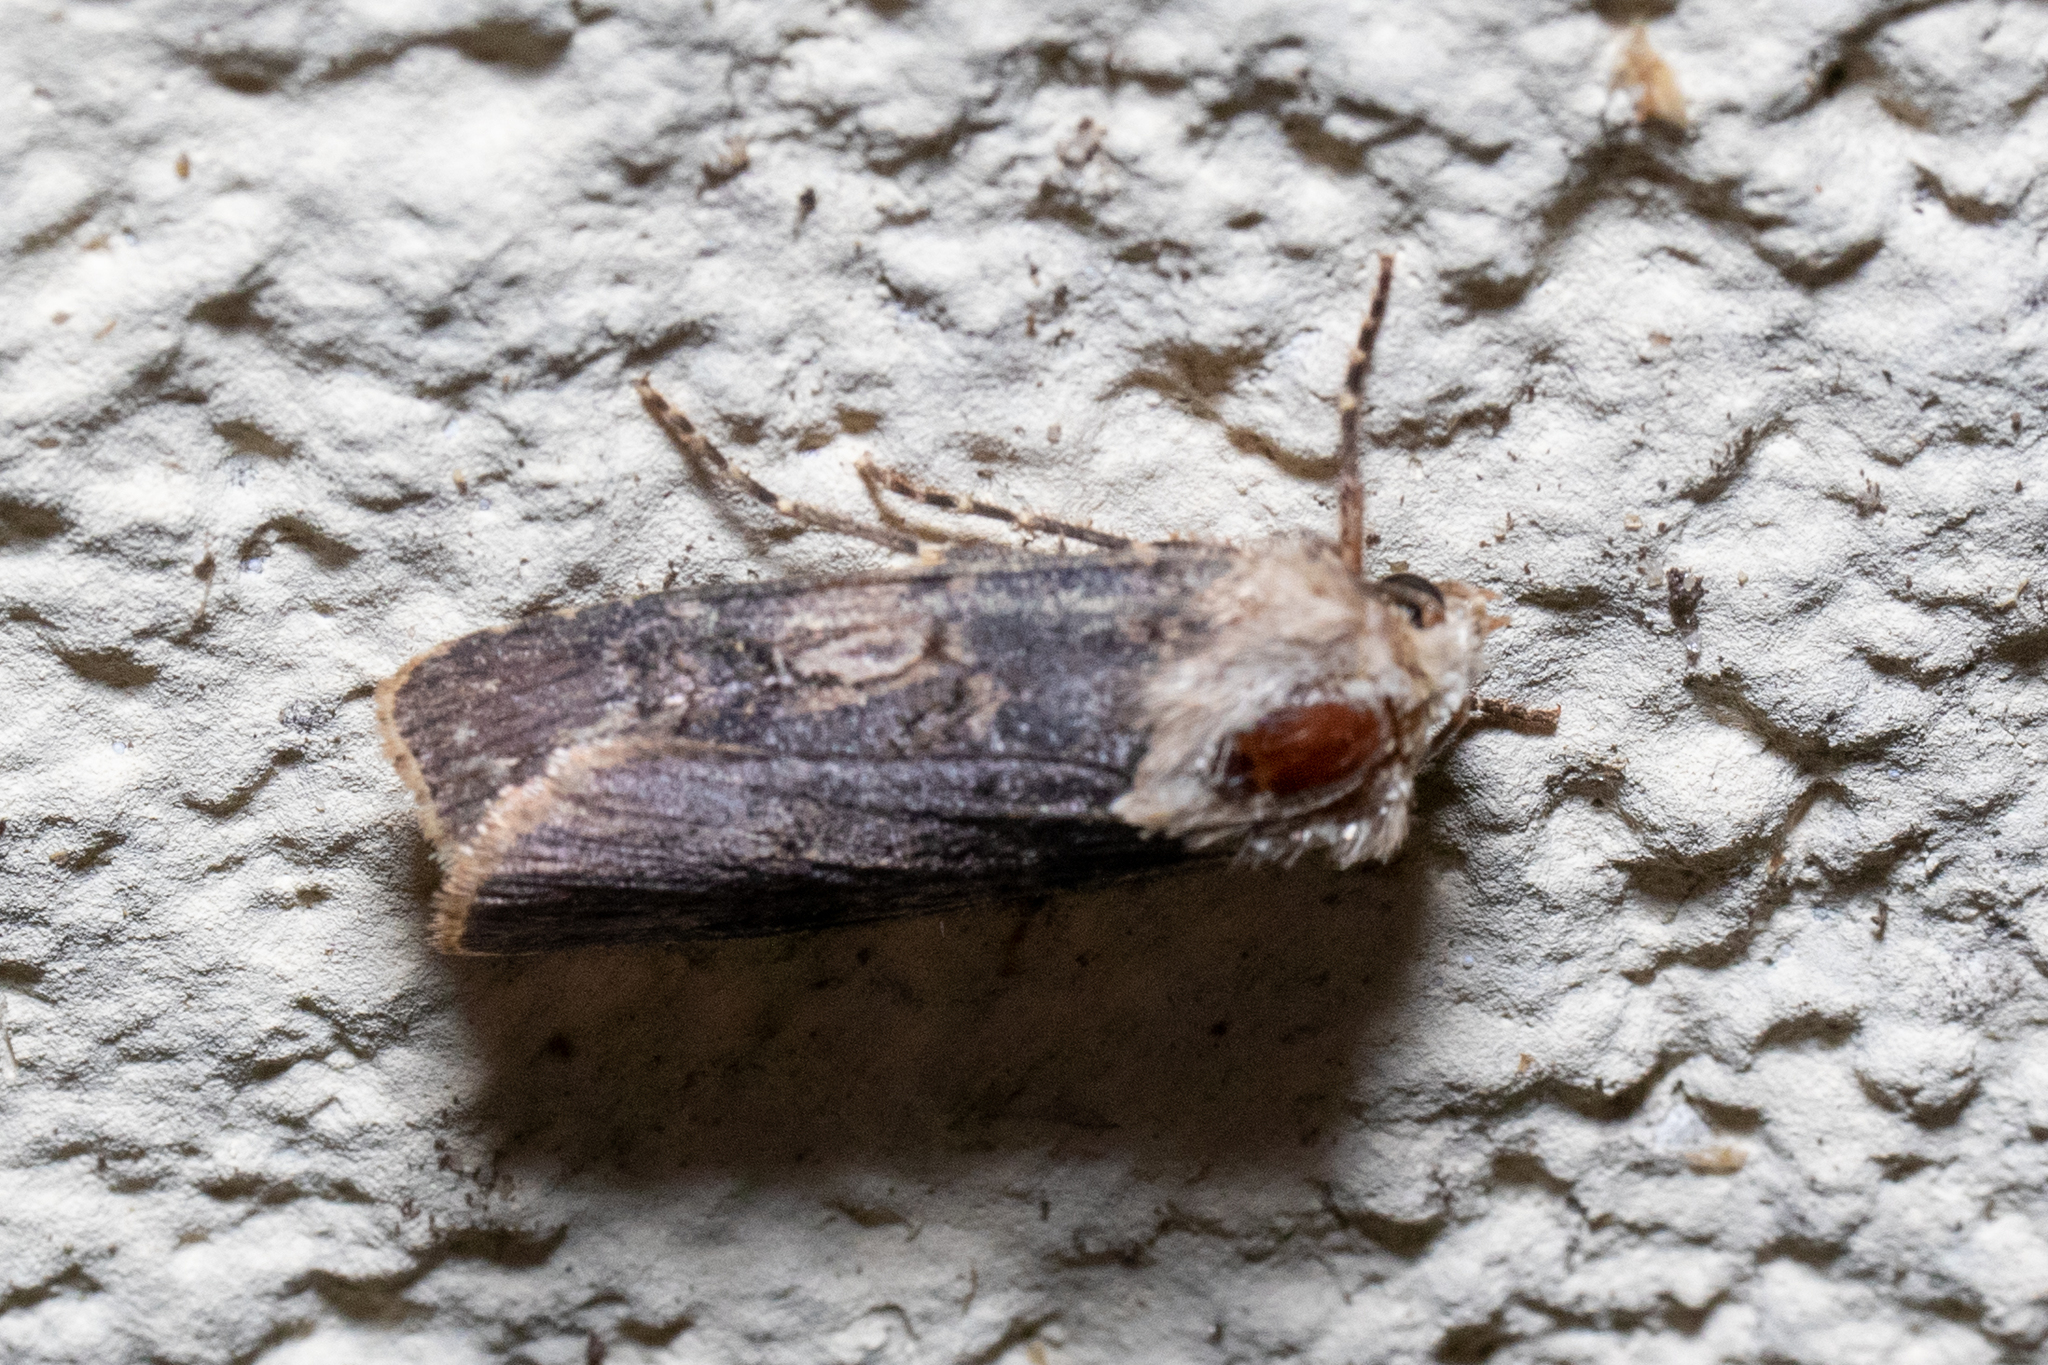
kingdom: Animalia
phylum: Arthropoda
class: Insecta
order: Lepidoptera
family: Noctuidae
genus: Agrotis
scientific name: Agrotis puta
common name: Shuttle-shaped dart
